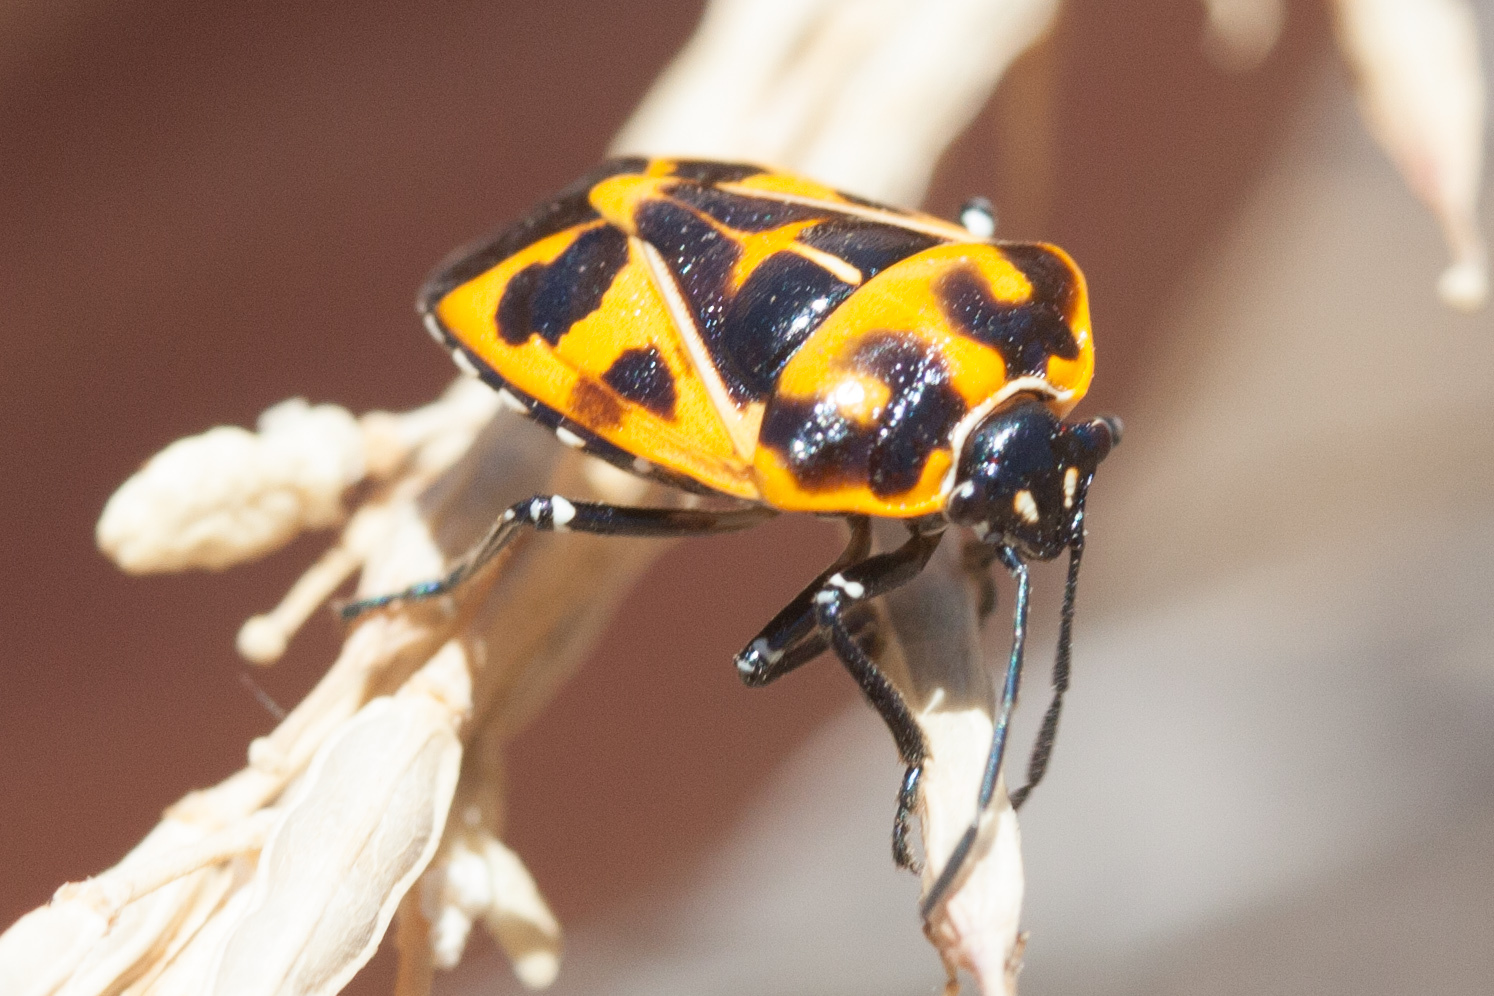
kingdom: Animalia
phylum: Arthropoda
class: Insecta
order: Hemiptera
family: Pentatomidae
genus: Murgantia
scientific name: Murgantia histrionica
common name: Harlequin bug
